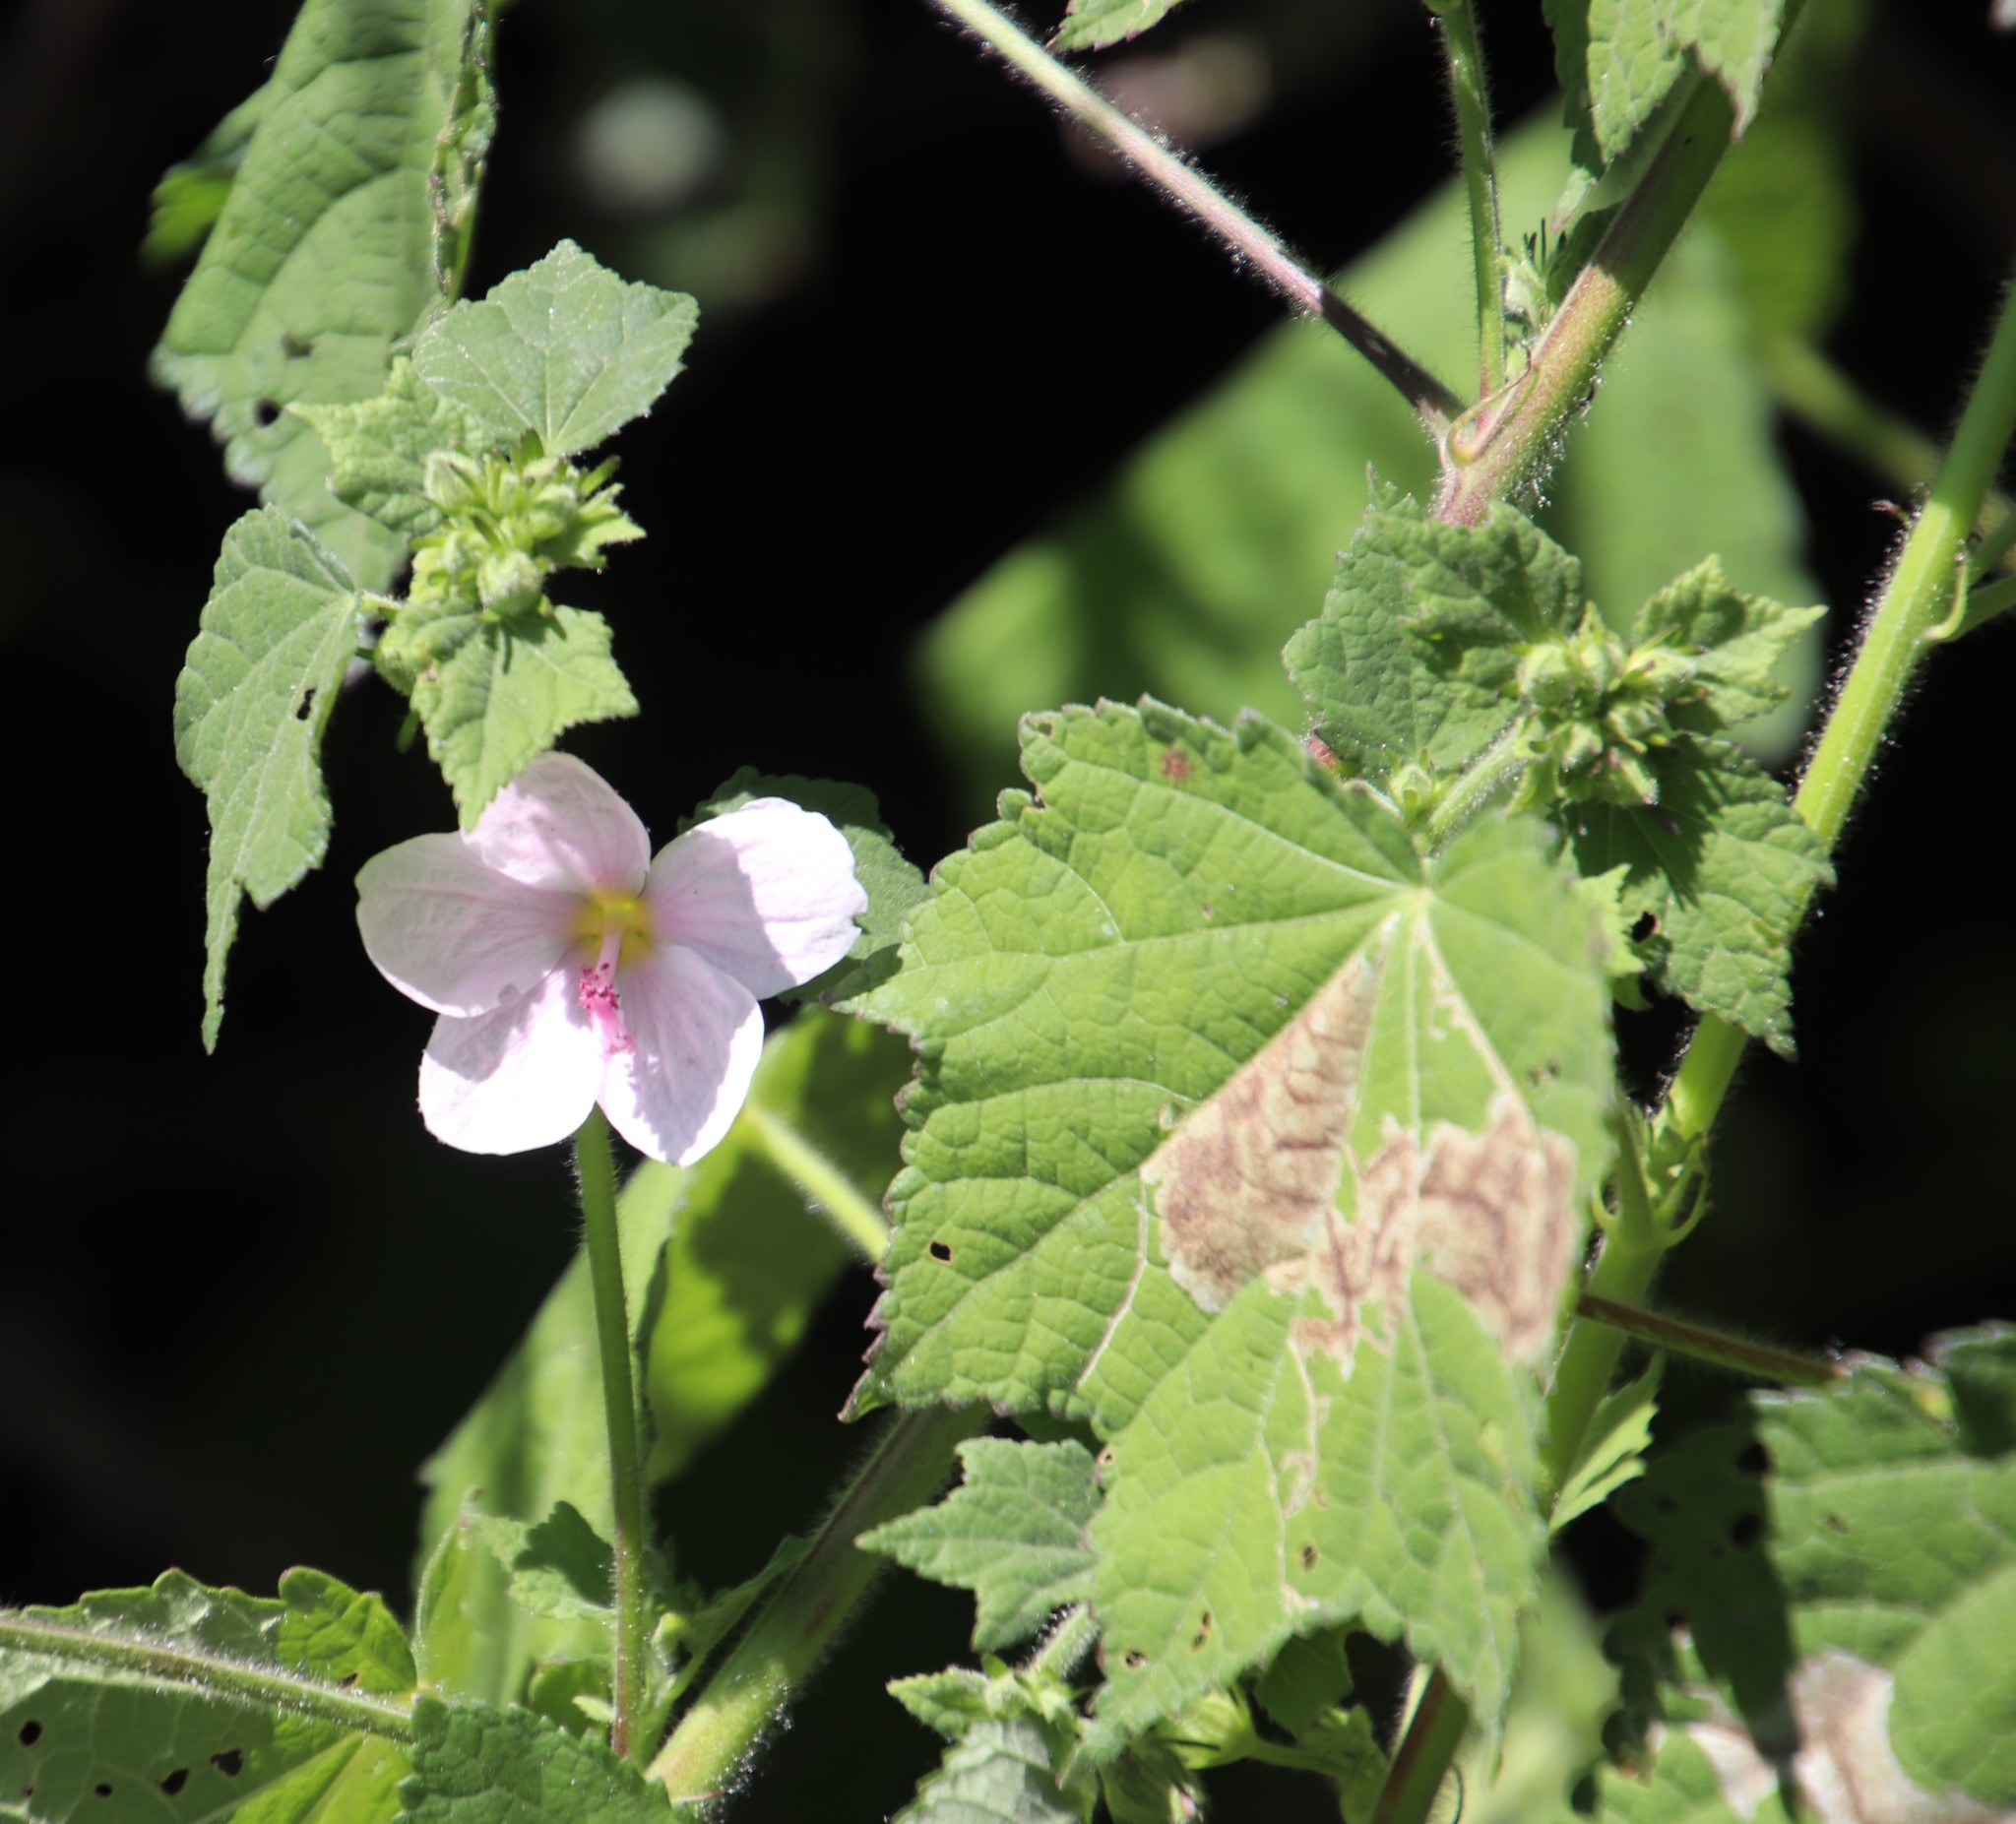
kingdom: Plantae
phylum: Tracheophyta
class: Magnoliopsida
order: Malvales
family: Malvaceae
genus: Pavonia
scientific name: Pavonia columella
